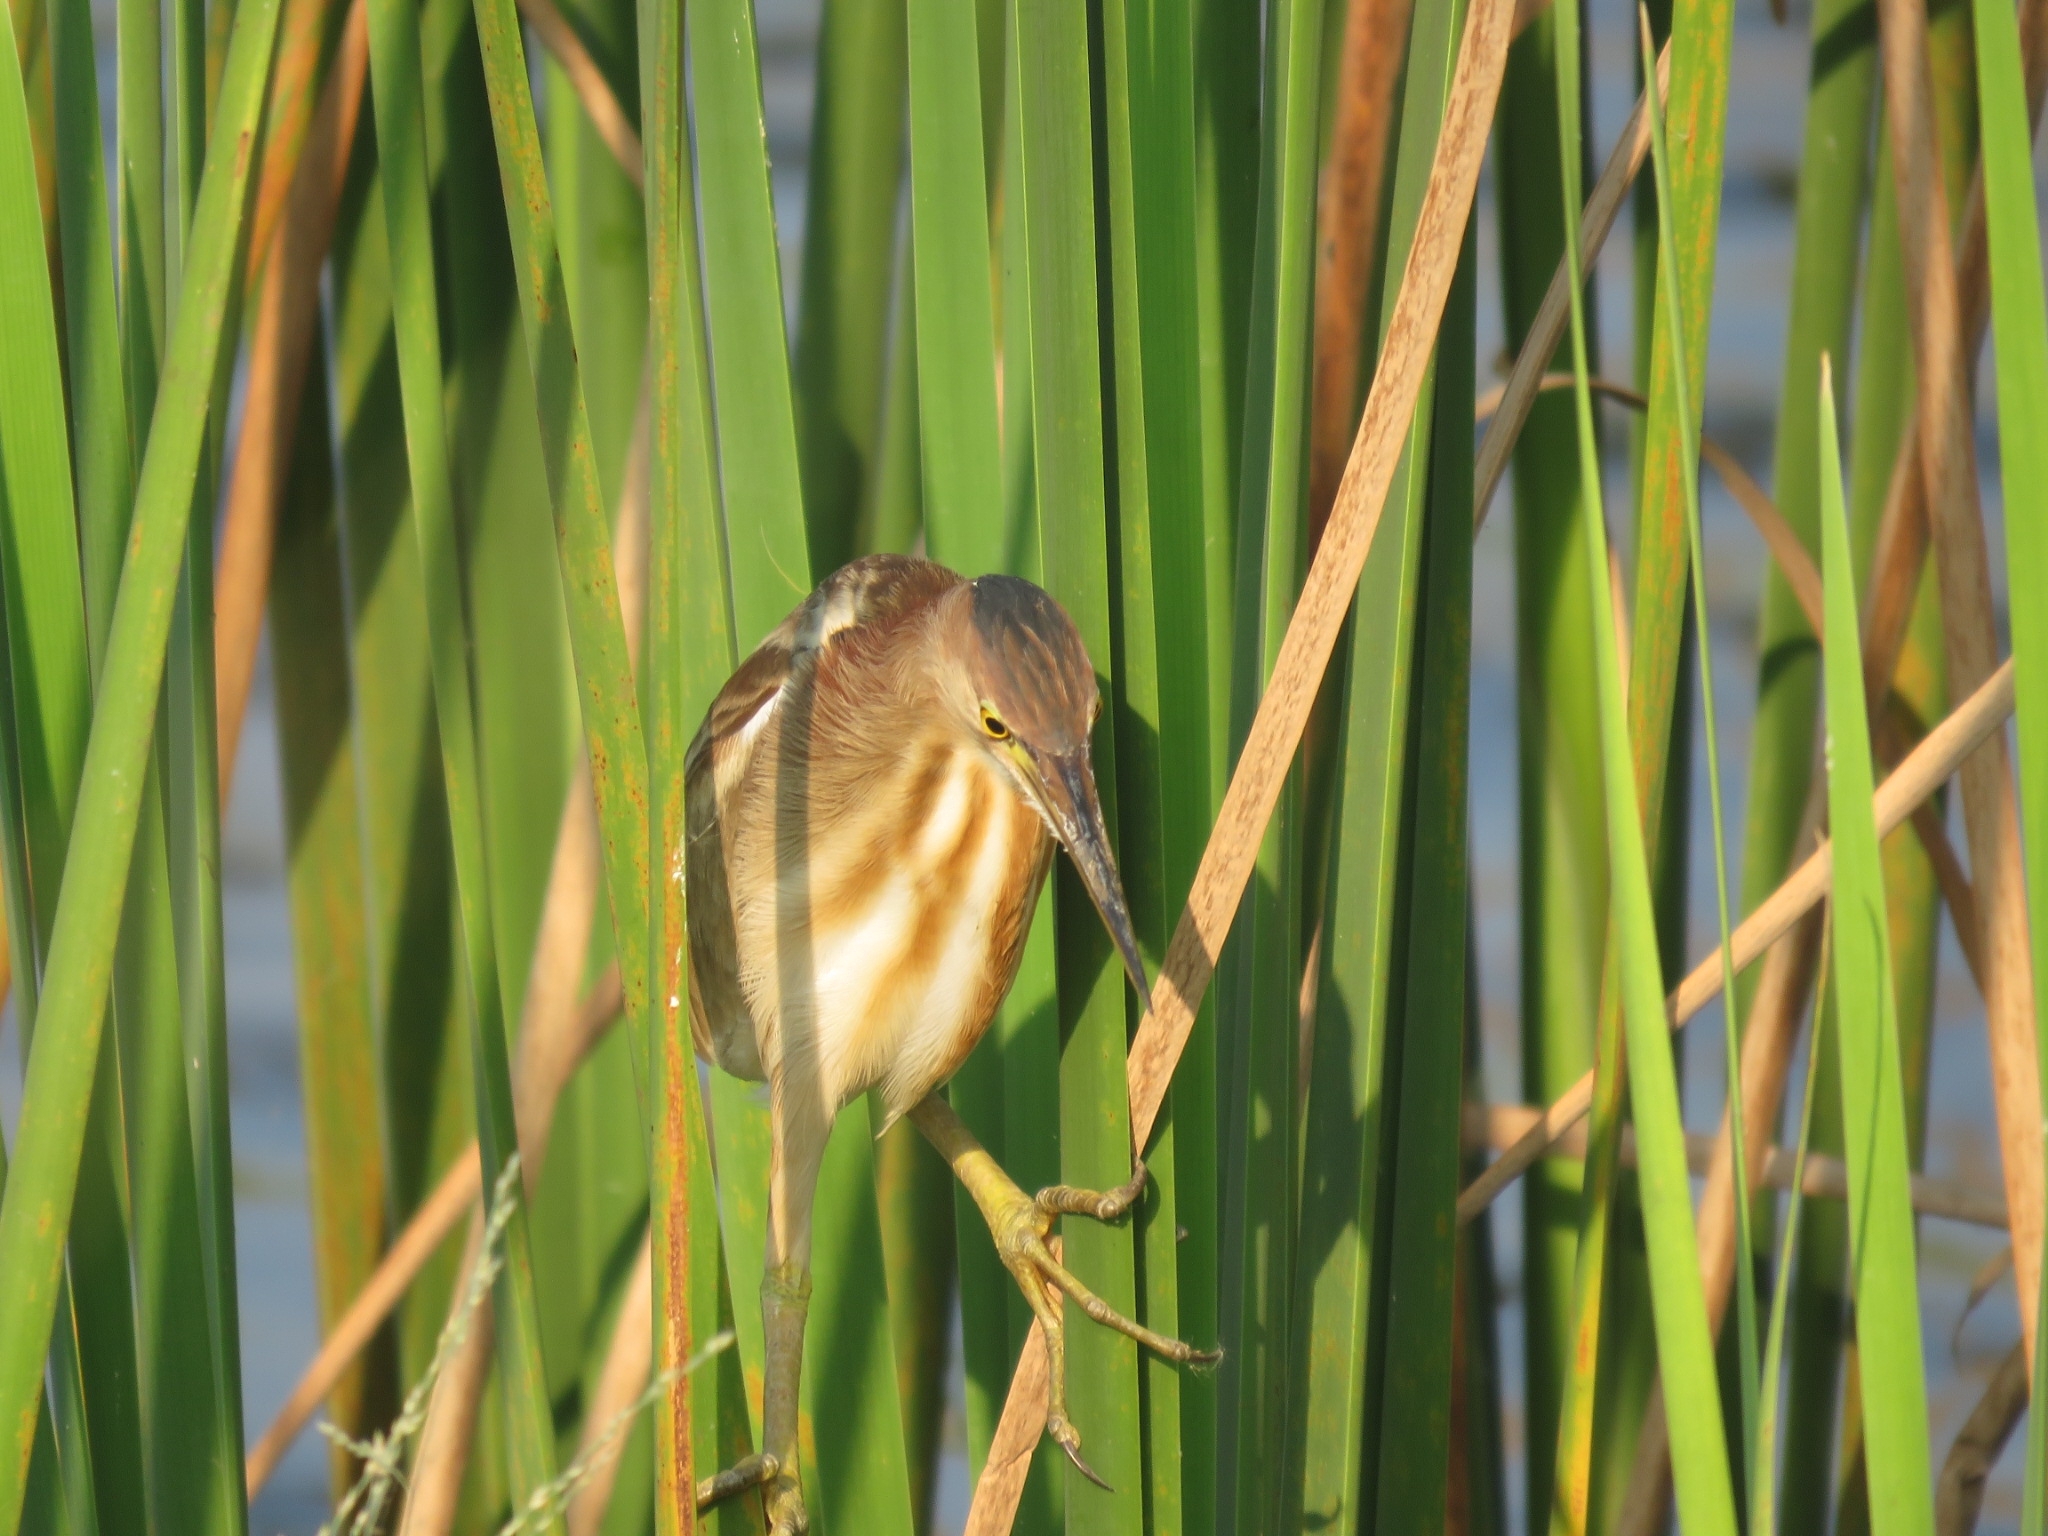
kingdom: Animalia
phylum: Chordata
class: Aves
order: Pelecaniformes
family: Ardeidae
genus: Ixobrychus
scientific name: Ixobrychus sinensis
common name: Yellow bittern
